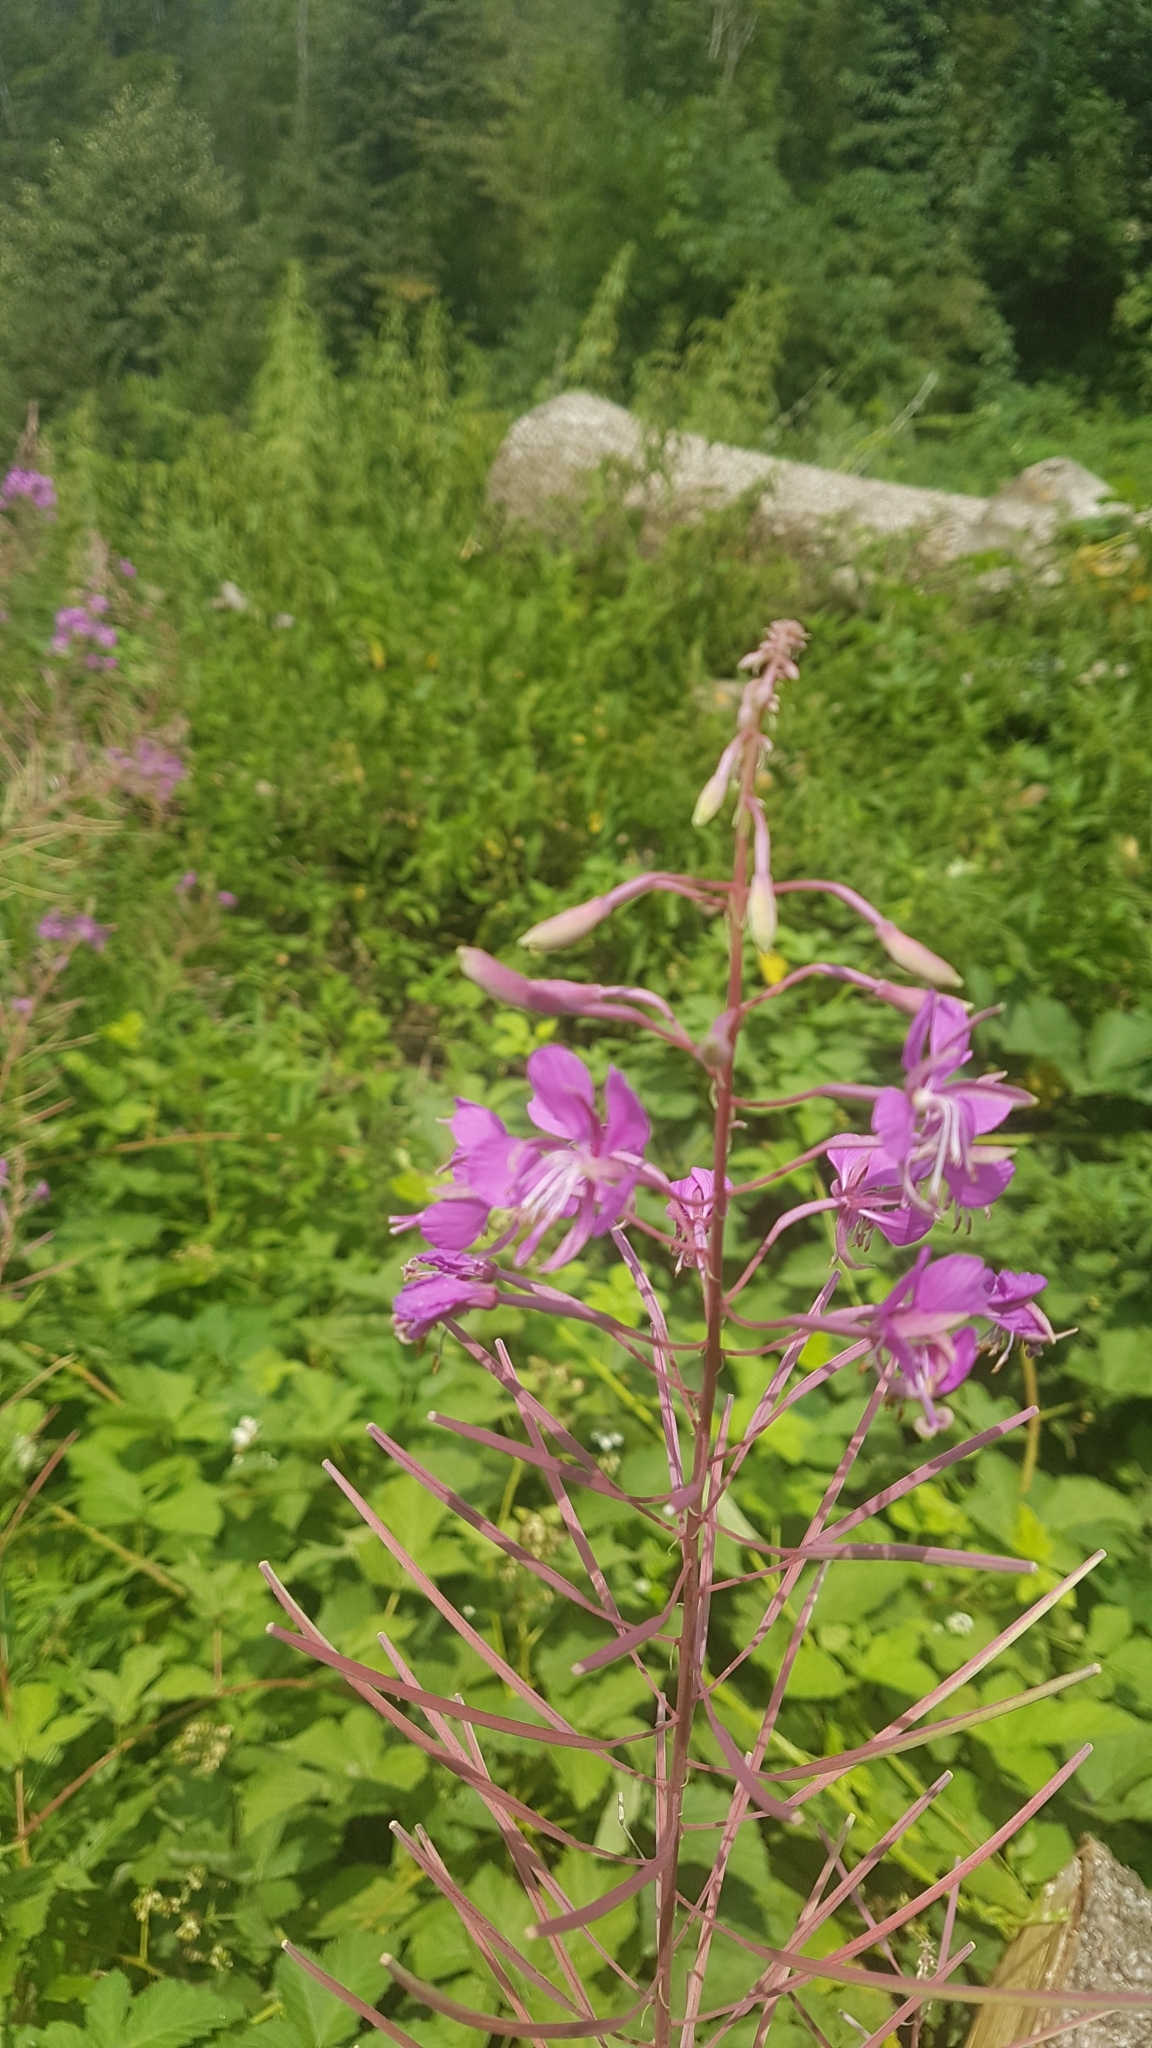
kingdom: Plantae
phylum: Tracheophyta
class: Magnoliopsida
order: Myrtales
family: Onagraceae
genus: Chamaenerion
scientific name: Chamaenerion angustifolium
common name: Fireweed
